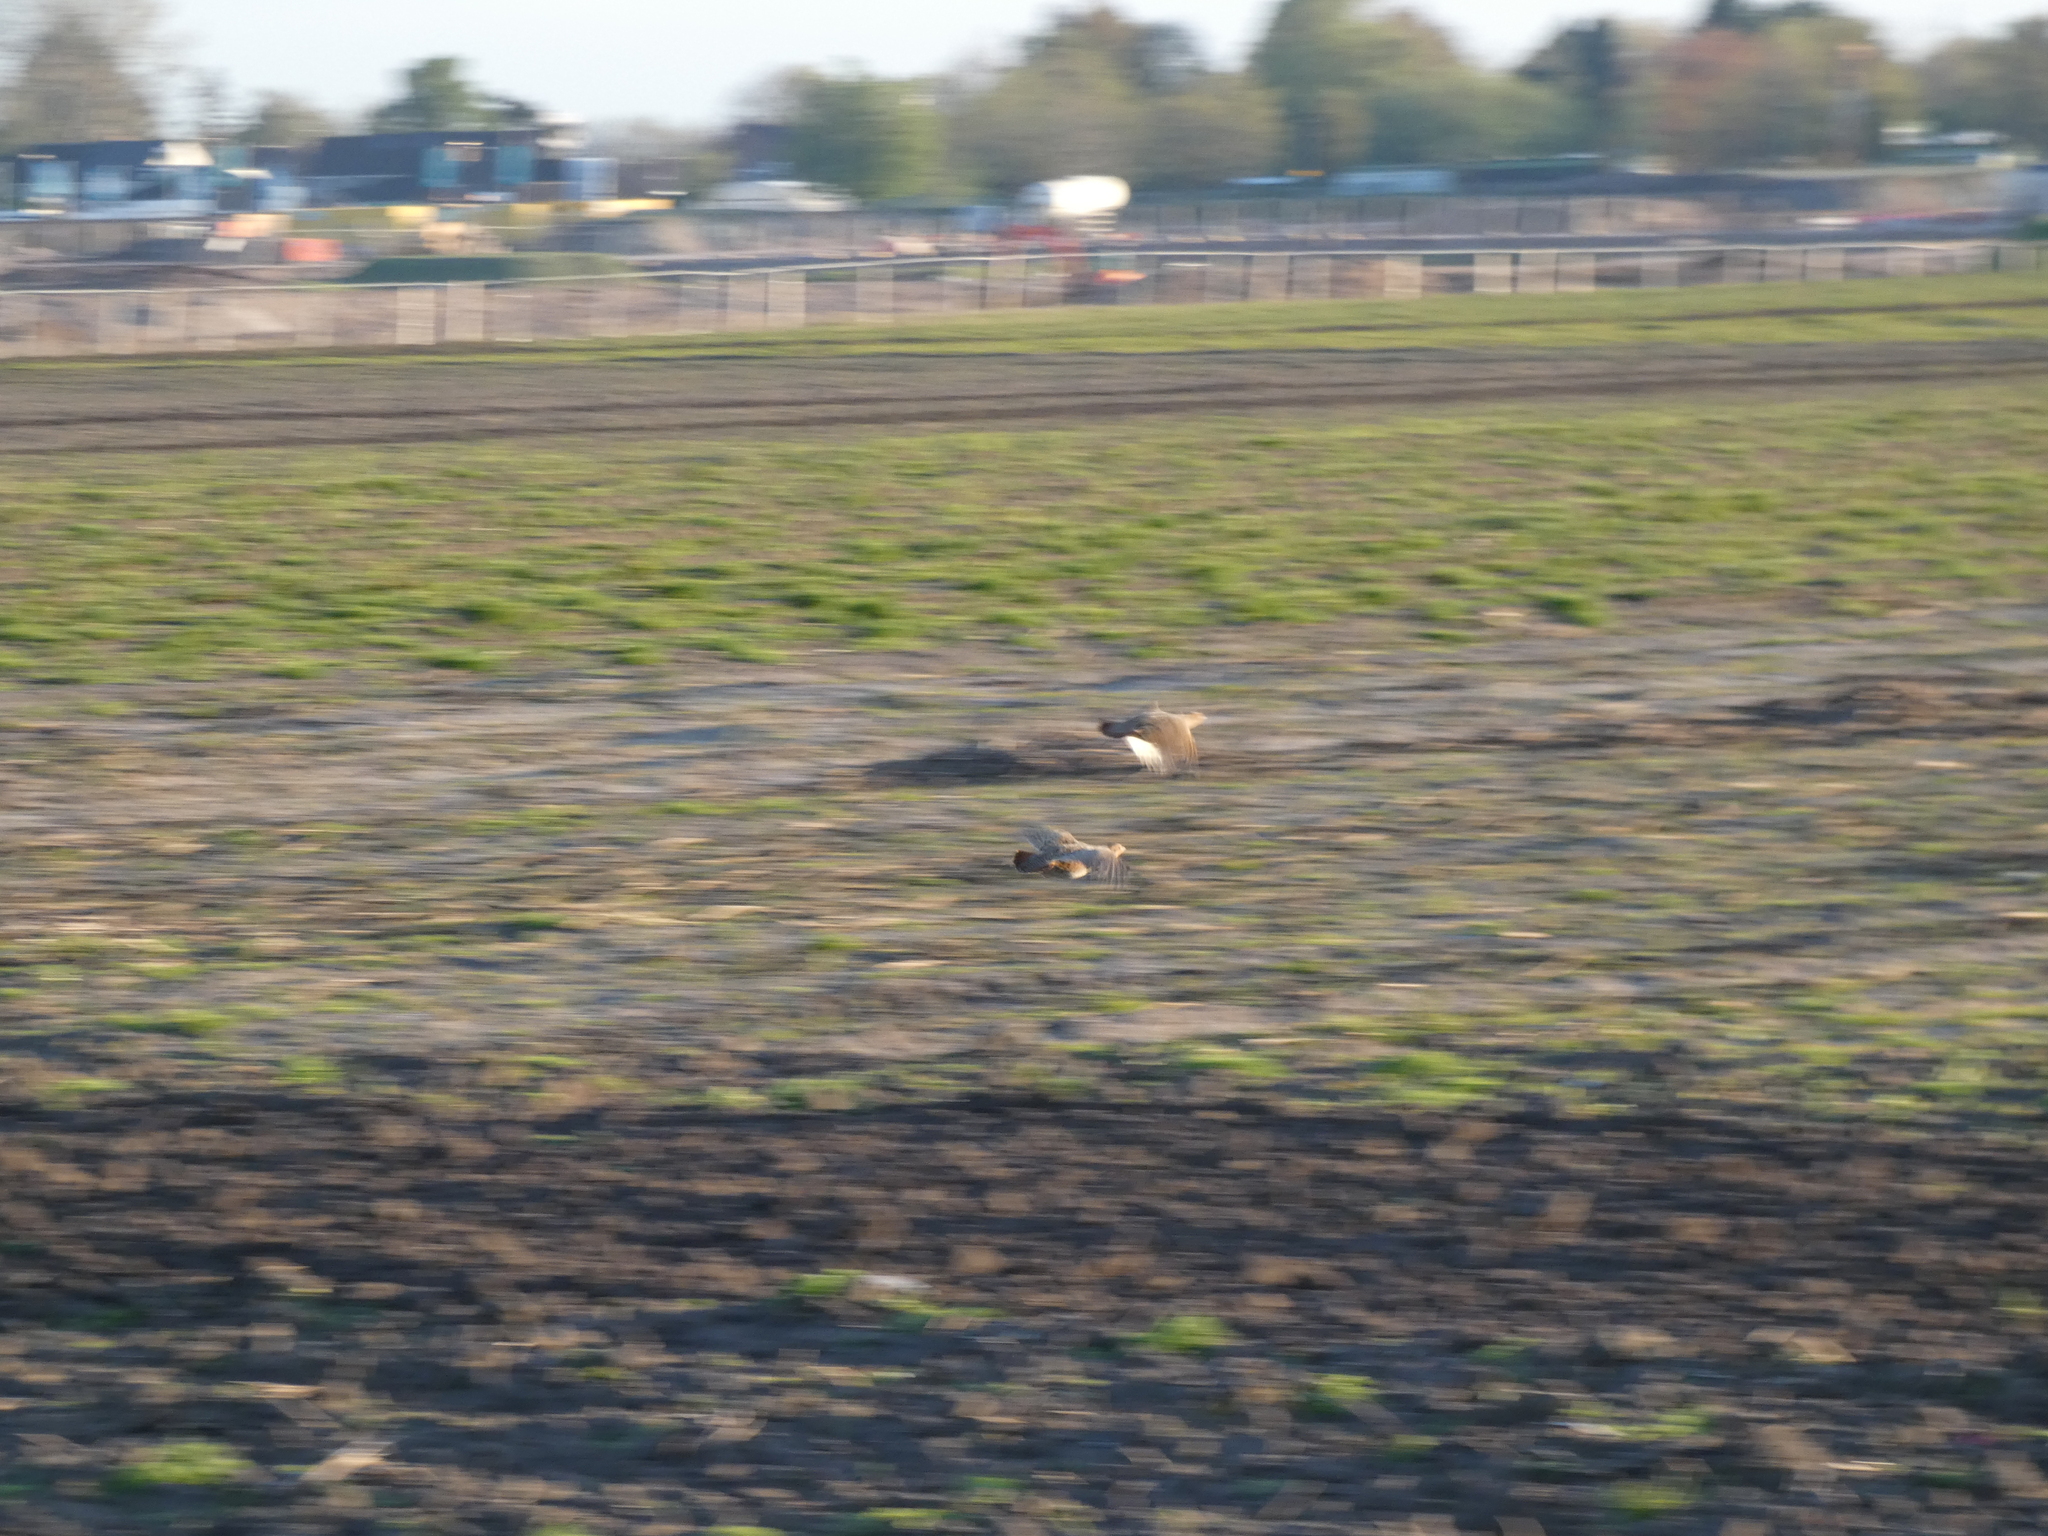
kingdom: Animalia
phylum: Chordata
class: Aves
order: Galliformes
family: Phasianidae
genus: Perdix
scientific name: Perdix perdix
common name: Grey partridge
